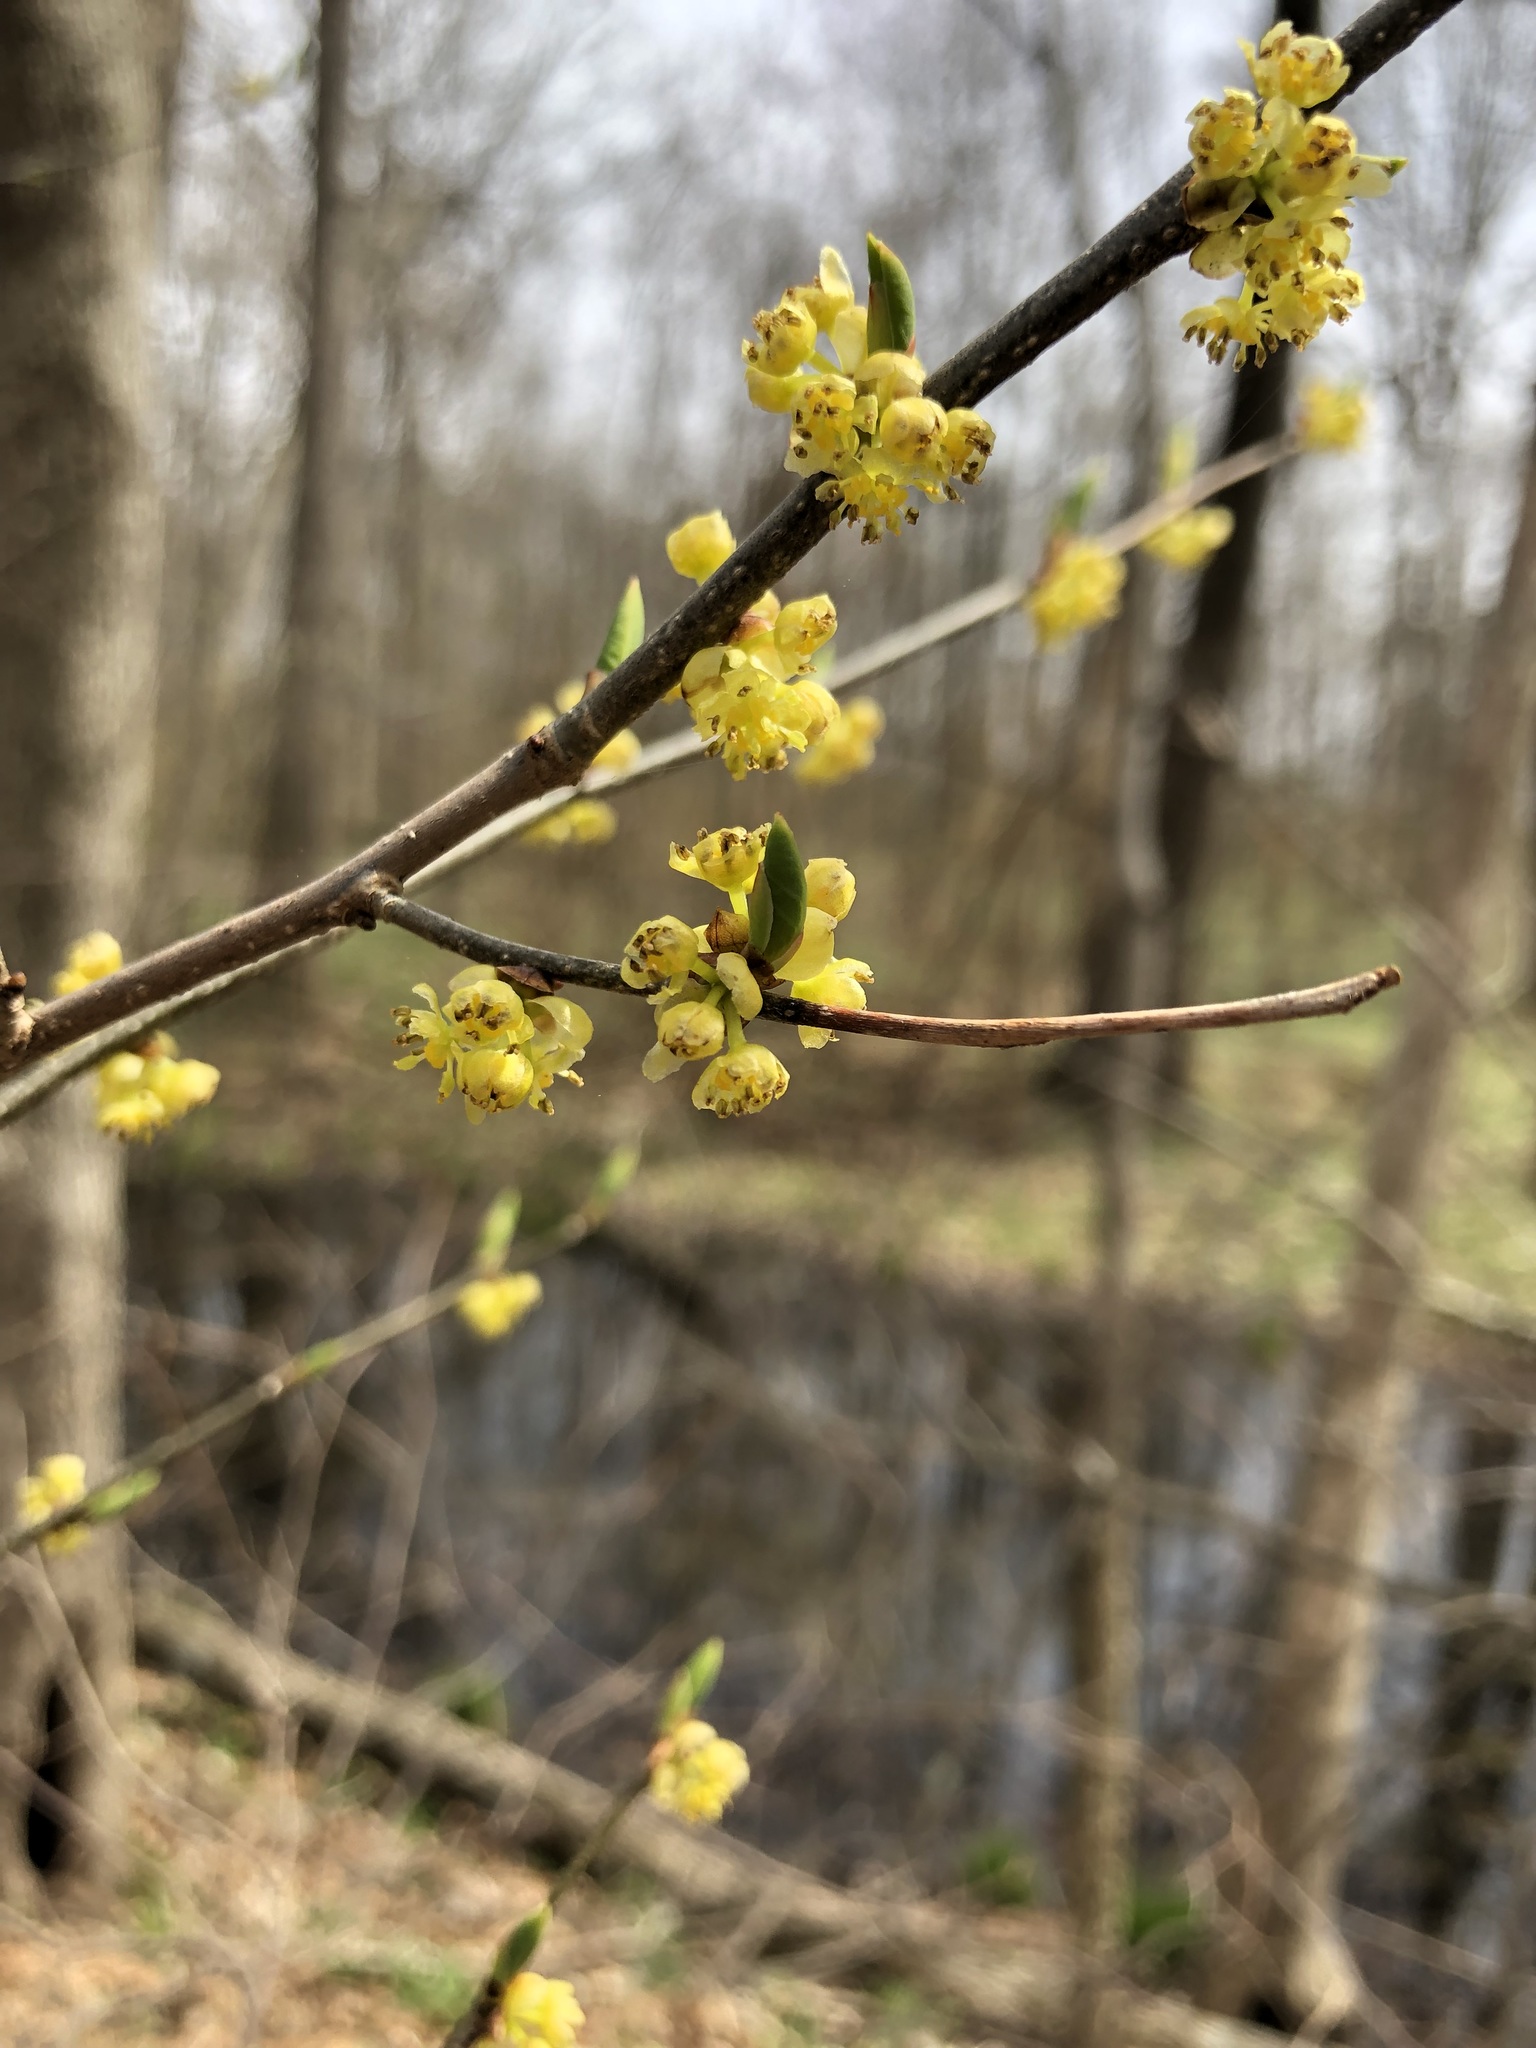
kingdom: Plantae
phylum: Tracheophyta
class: Magnoliopsida
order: Laurales
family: Lauraceae
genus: Lindera
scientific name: Lindera benzoin
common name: Spicebush
